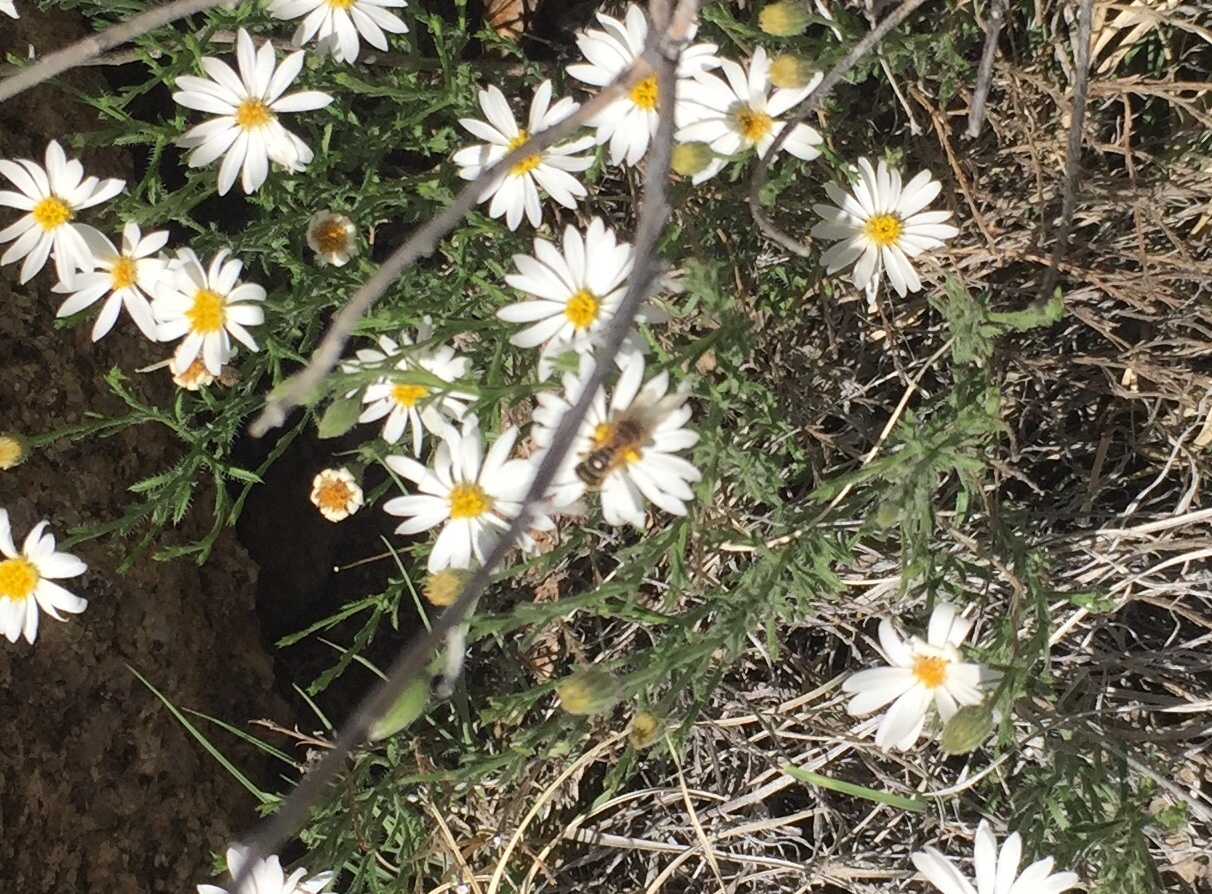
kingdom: Animalia
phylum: Arthropoda
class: Insecta
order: Hymenoptera
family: Halictidae
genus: Halictus
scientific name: Halictus ligatus
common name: Ligated furrow bee
